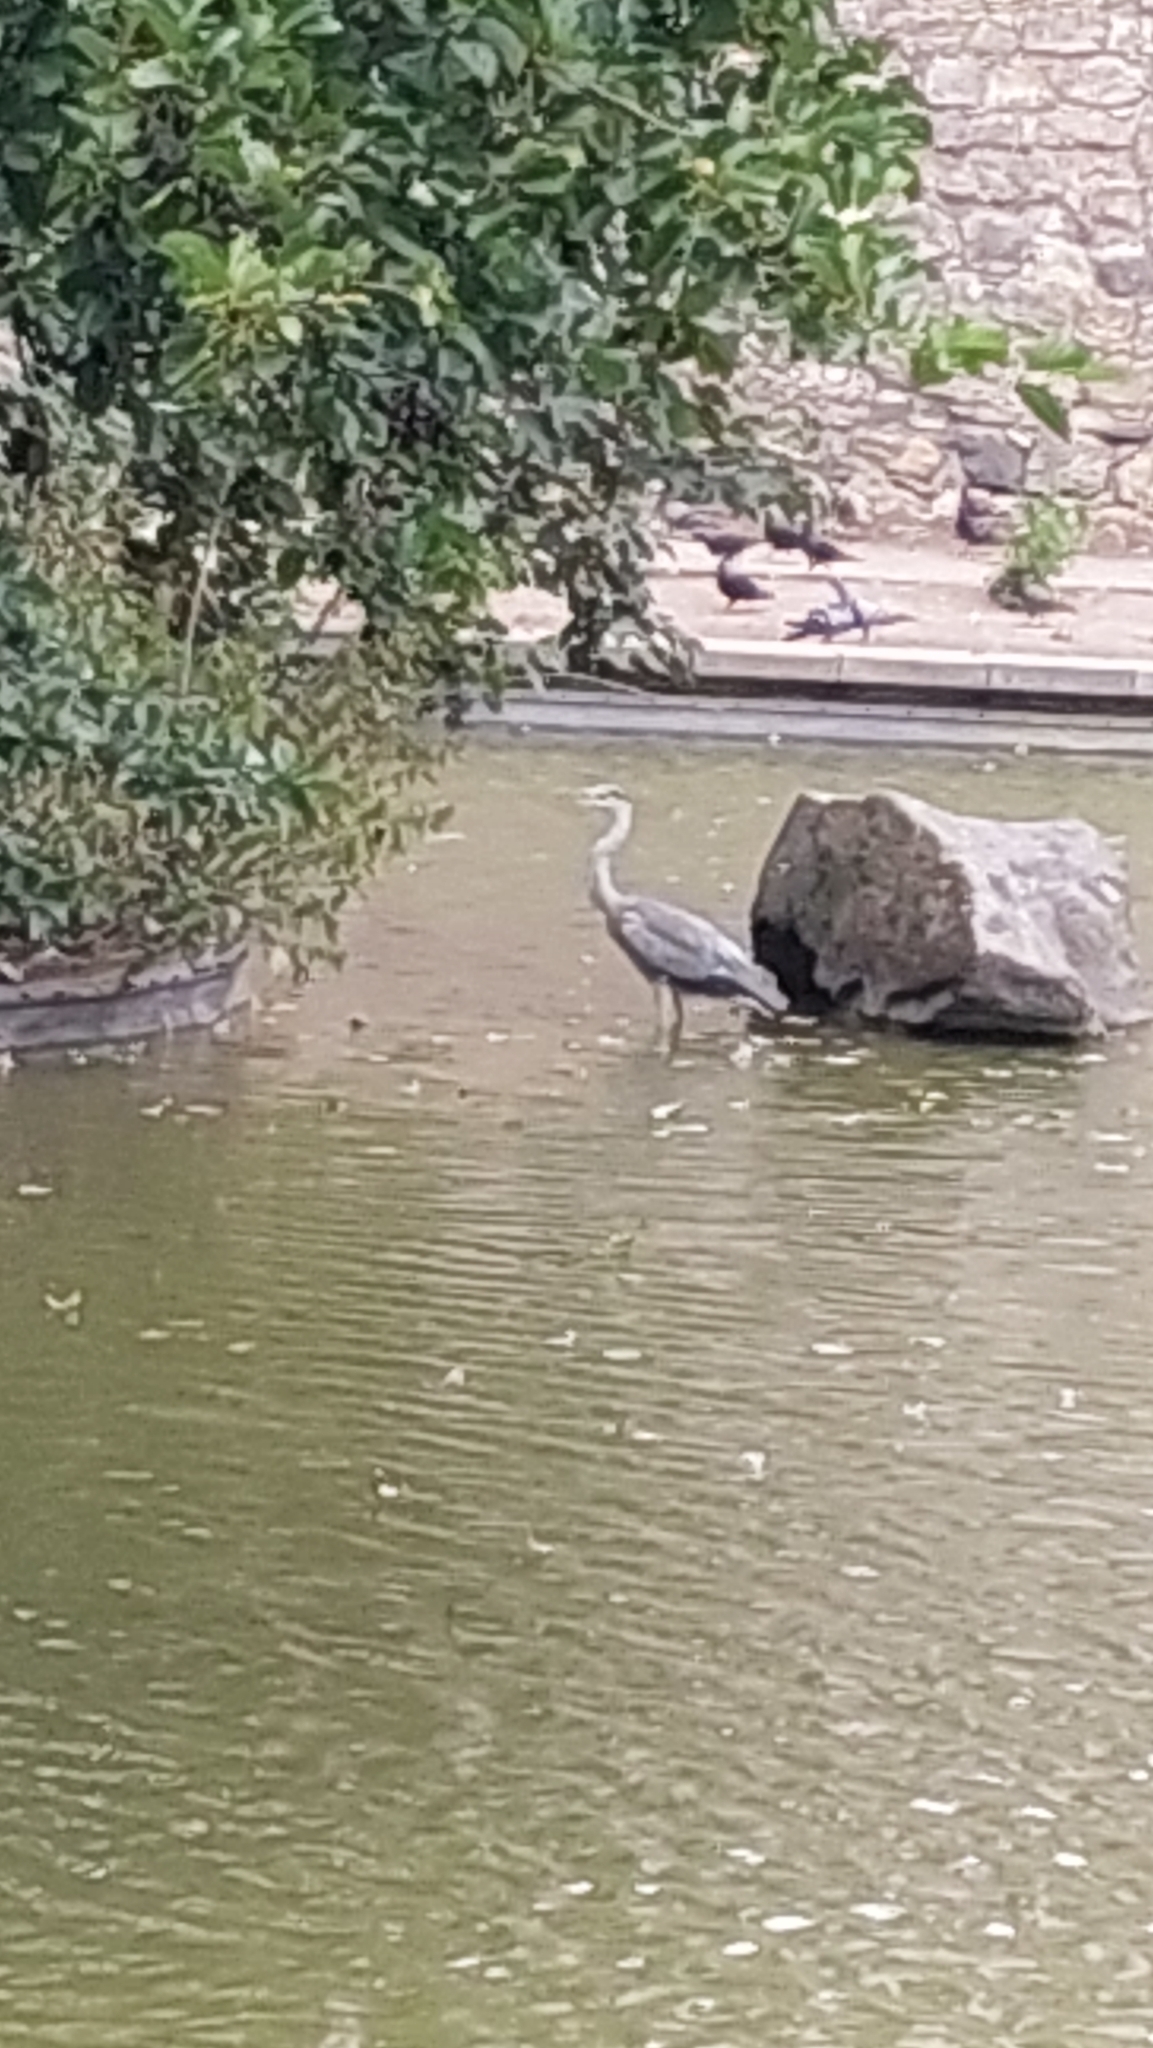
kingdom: Animalia
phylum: Chordata
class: Aves
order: Pelecaniformes
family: Ardeidae
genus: Ardea
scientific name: Ardea cinerea
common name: Grey heron
